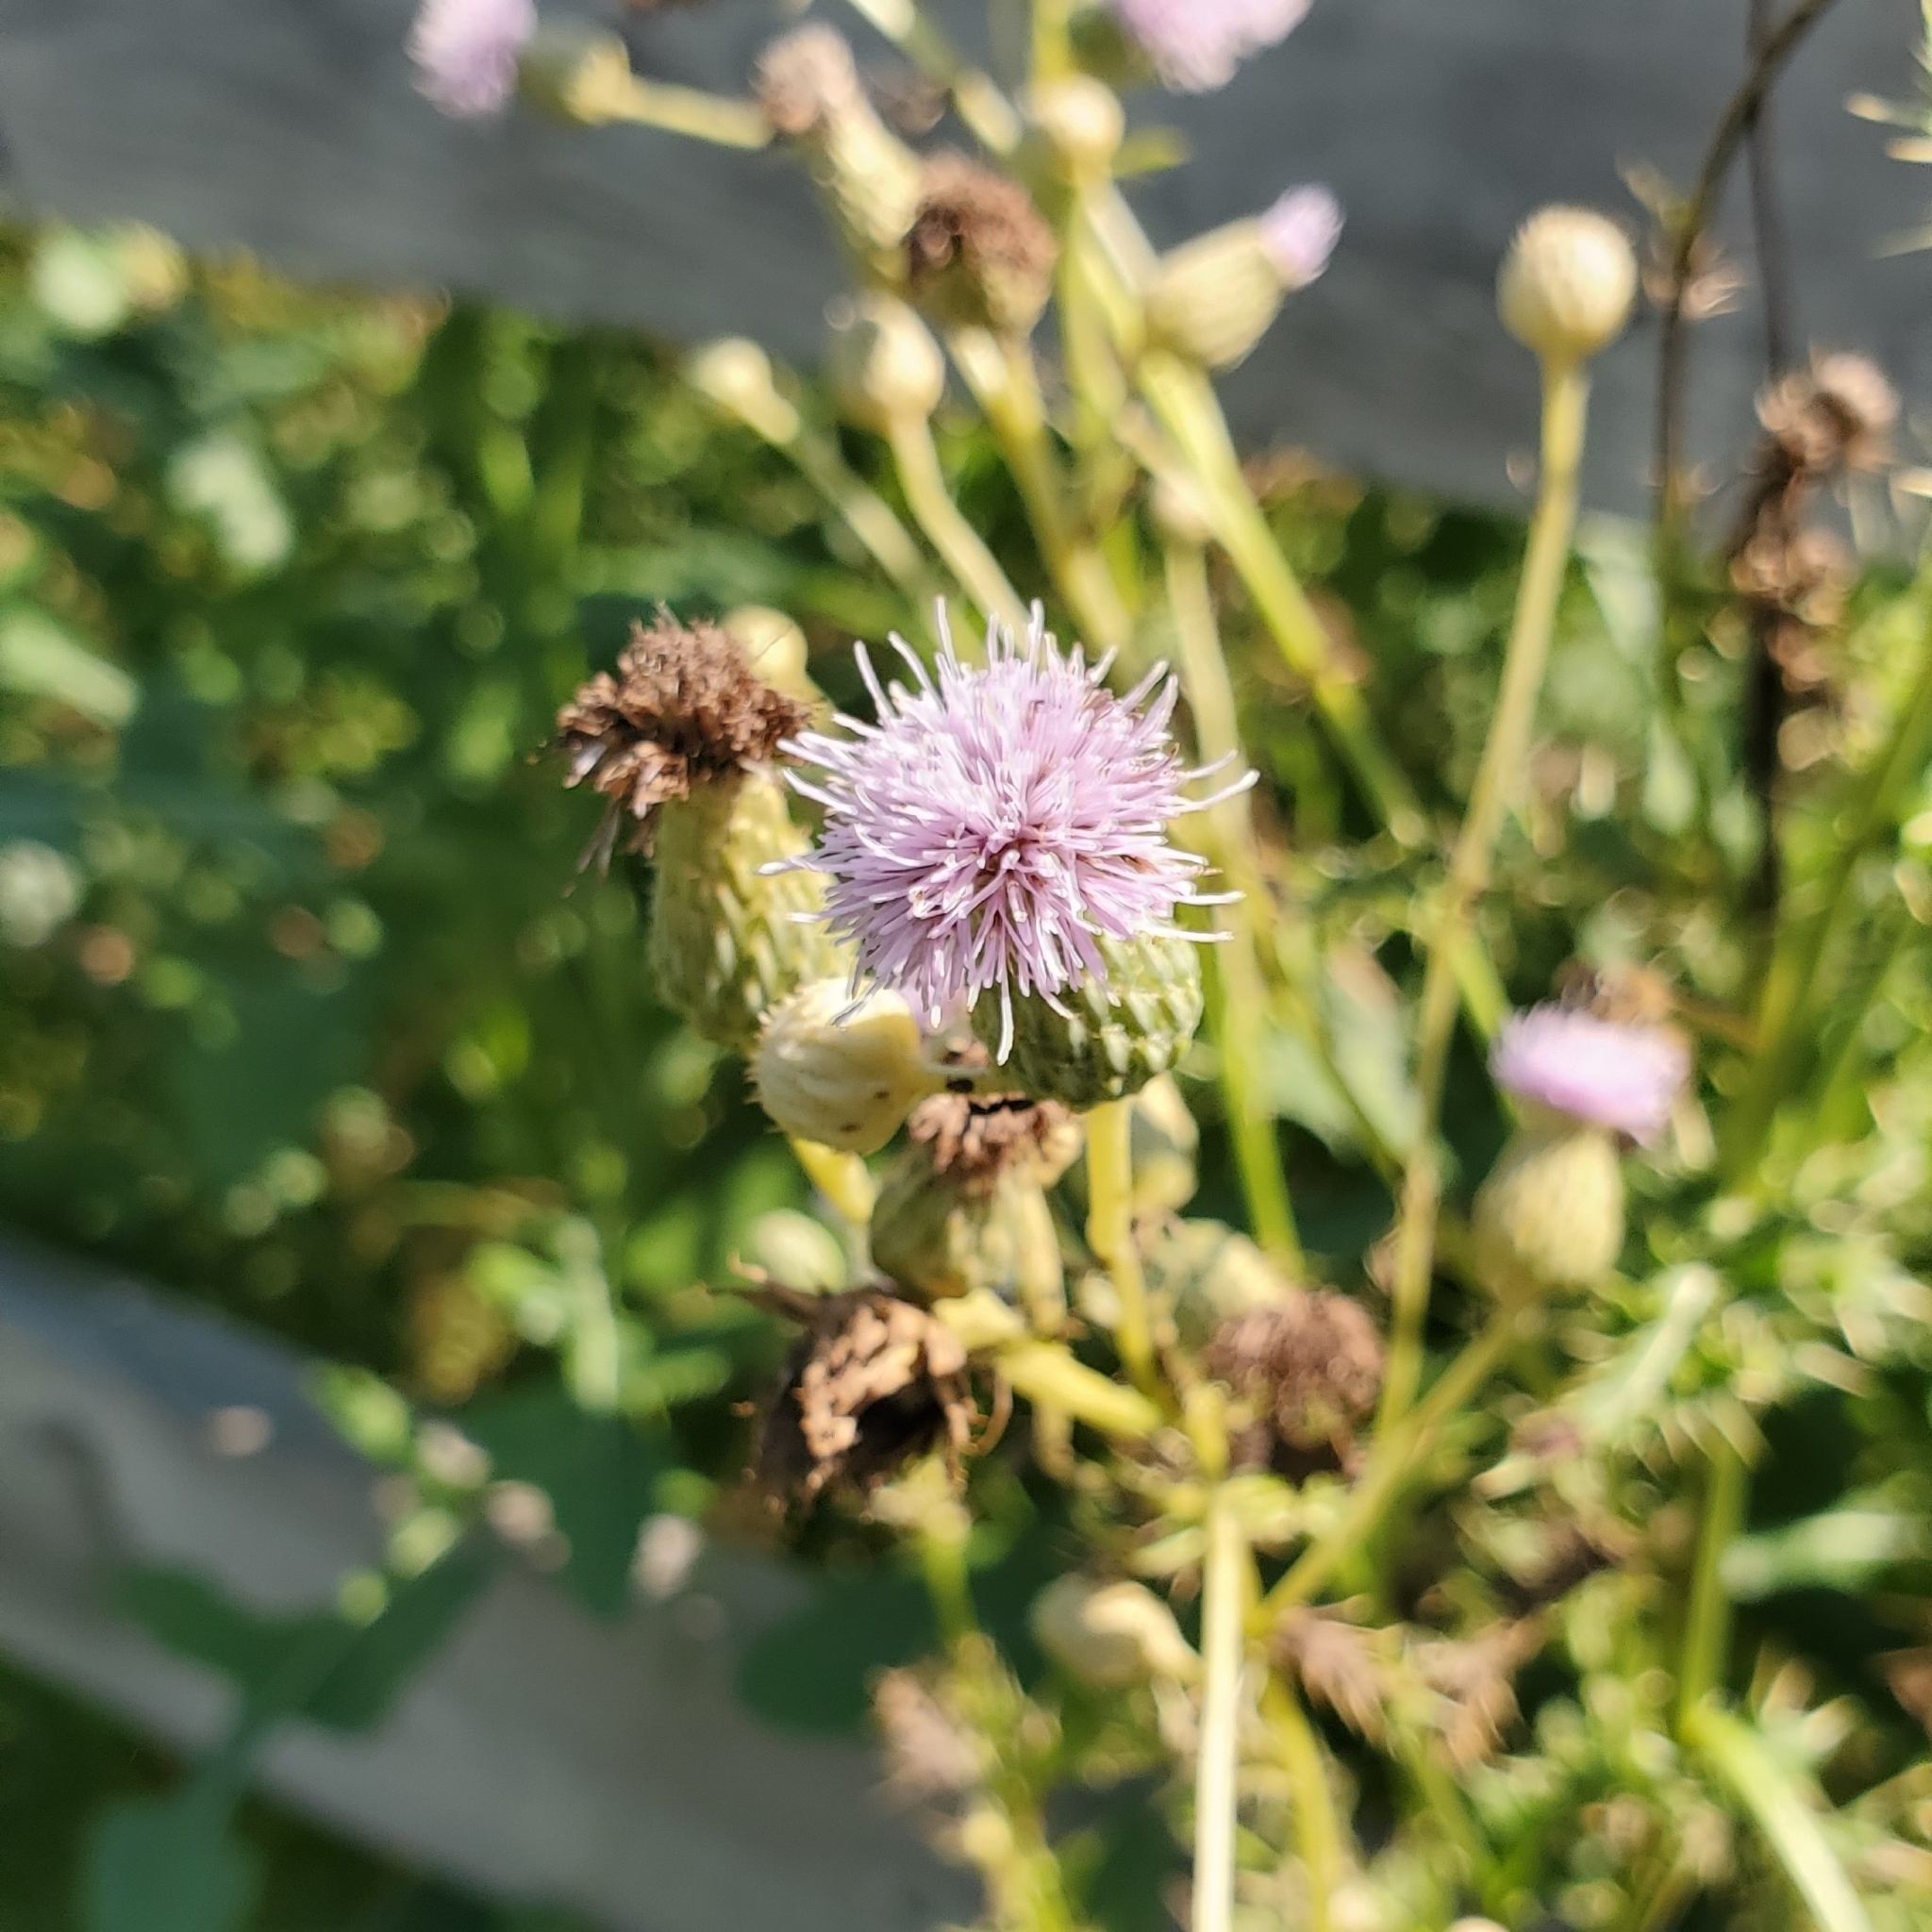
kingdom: Plantae
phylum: Tracheophyta
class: Magnoliopsida
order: Asterales
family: Asteraceae
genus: Cirsium
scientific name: Cirsium arvense
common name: Creeping thistle
